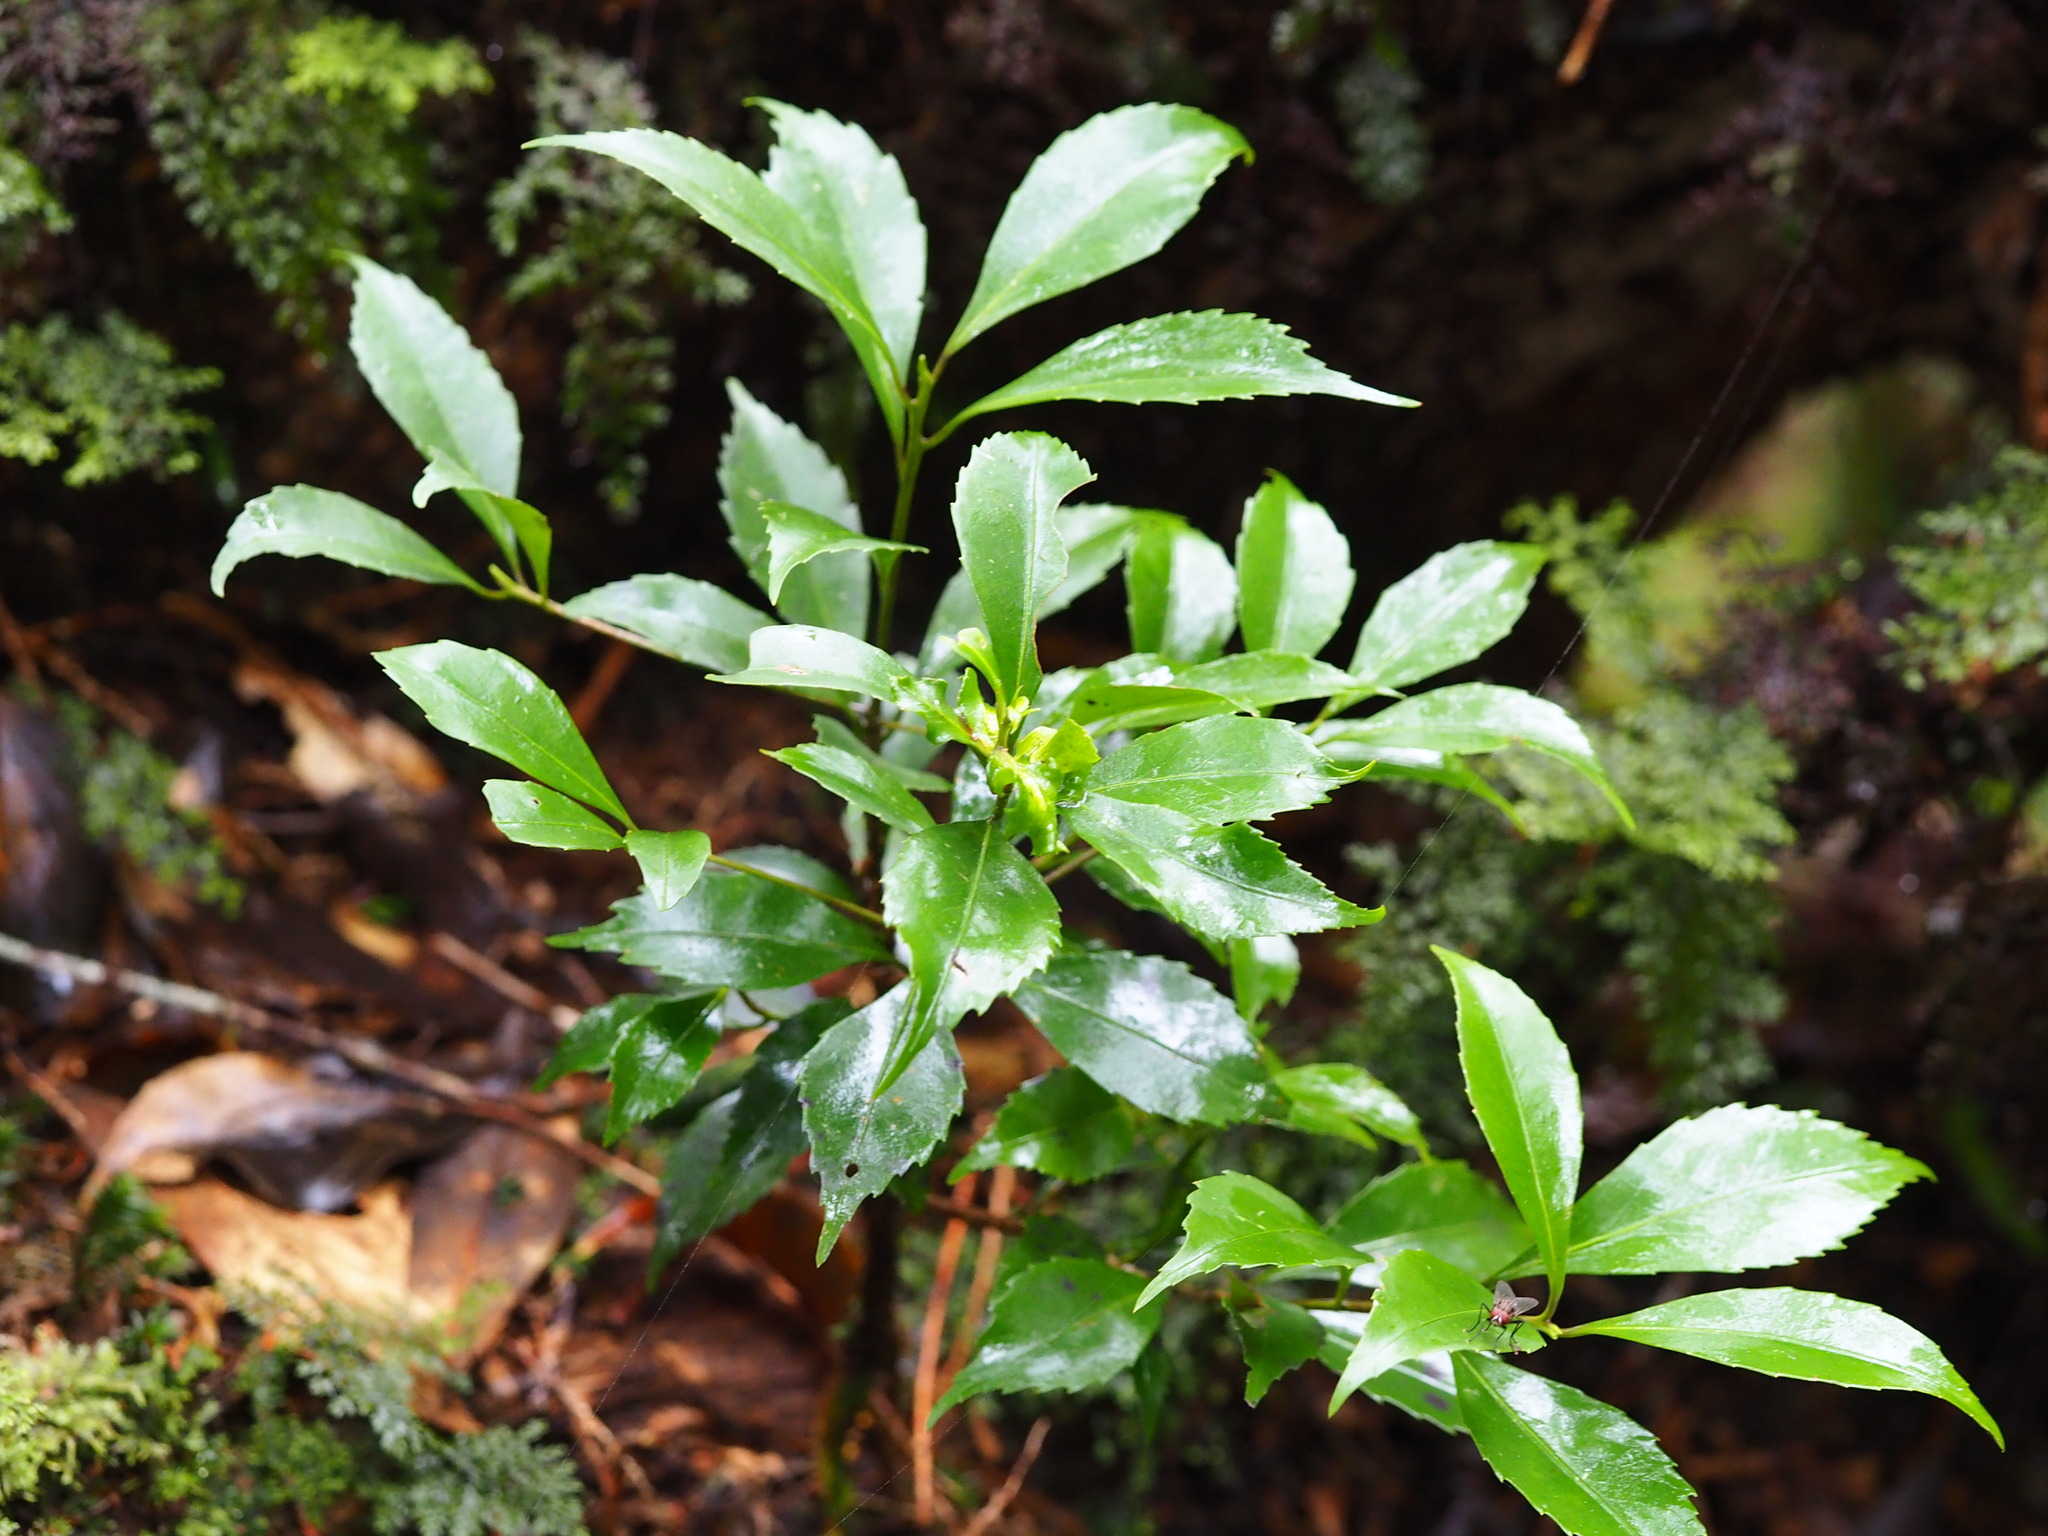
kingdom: Plantae
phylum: Tracheophyta
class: Magnoliopsida
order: Ericales
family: Symplocaceae
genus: Symplocos
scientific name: Symplocos migoi
